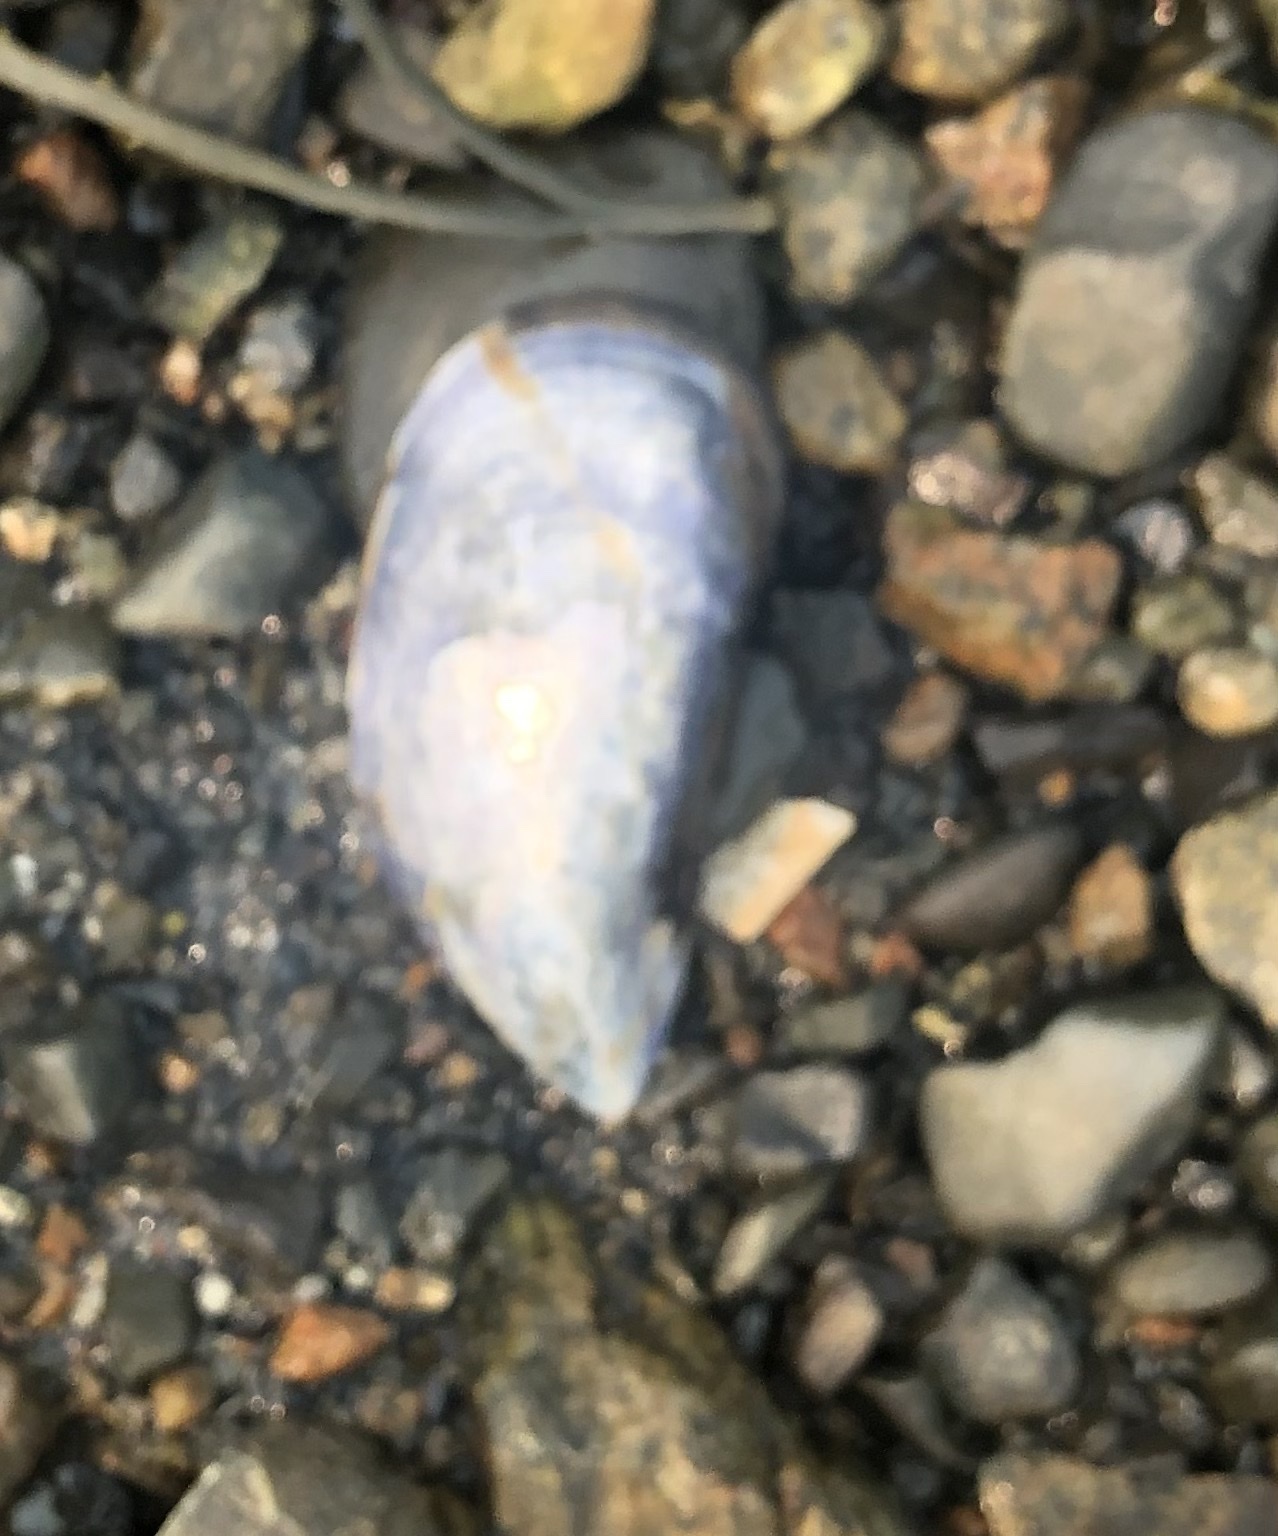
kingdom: Animalia
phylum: Mollusca
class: Bivalvia
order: Mytilida
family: Mytilidae
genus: Mytilus
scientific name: Mytilus edulis
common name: Blue mussel
